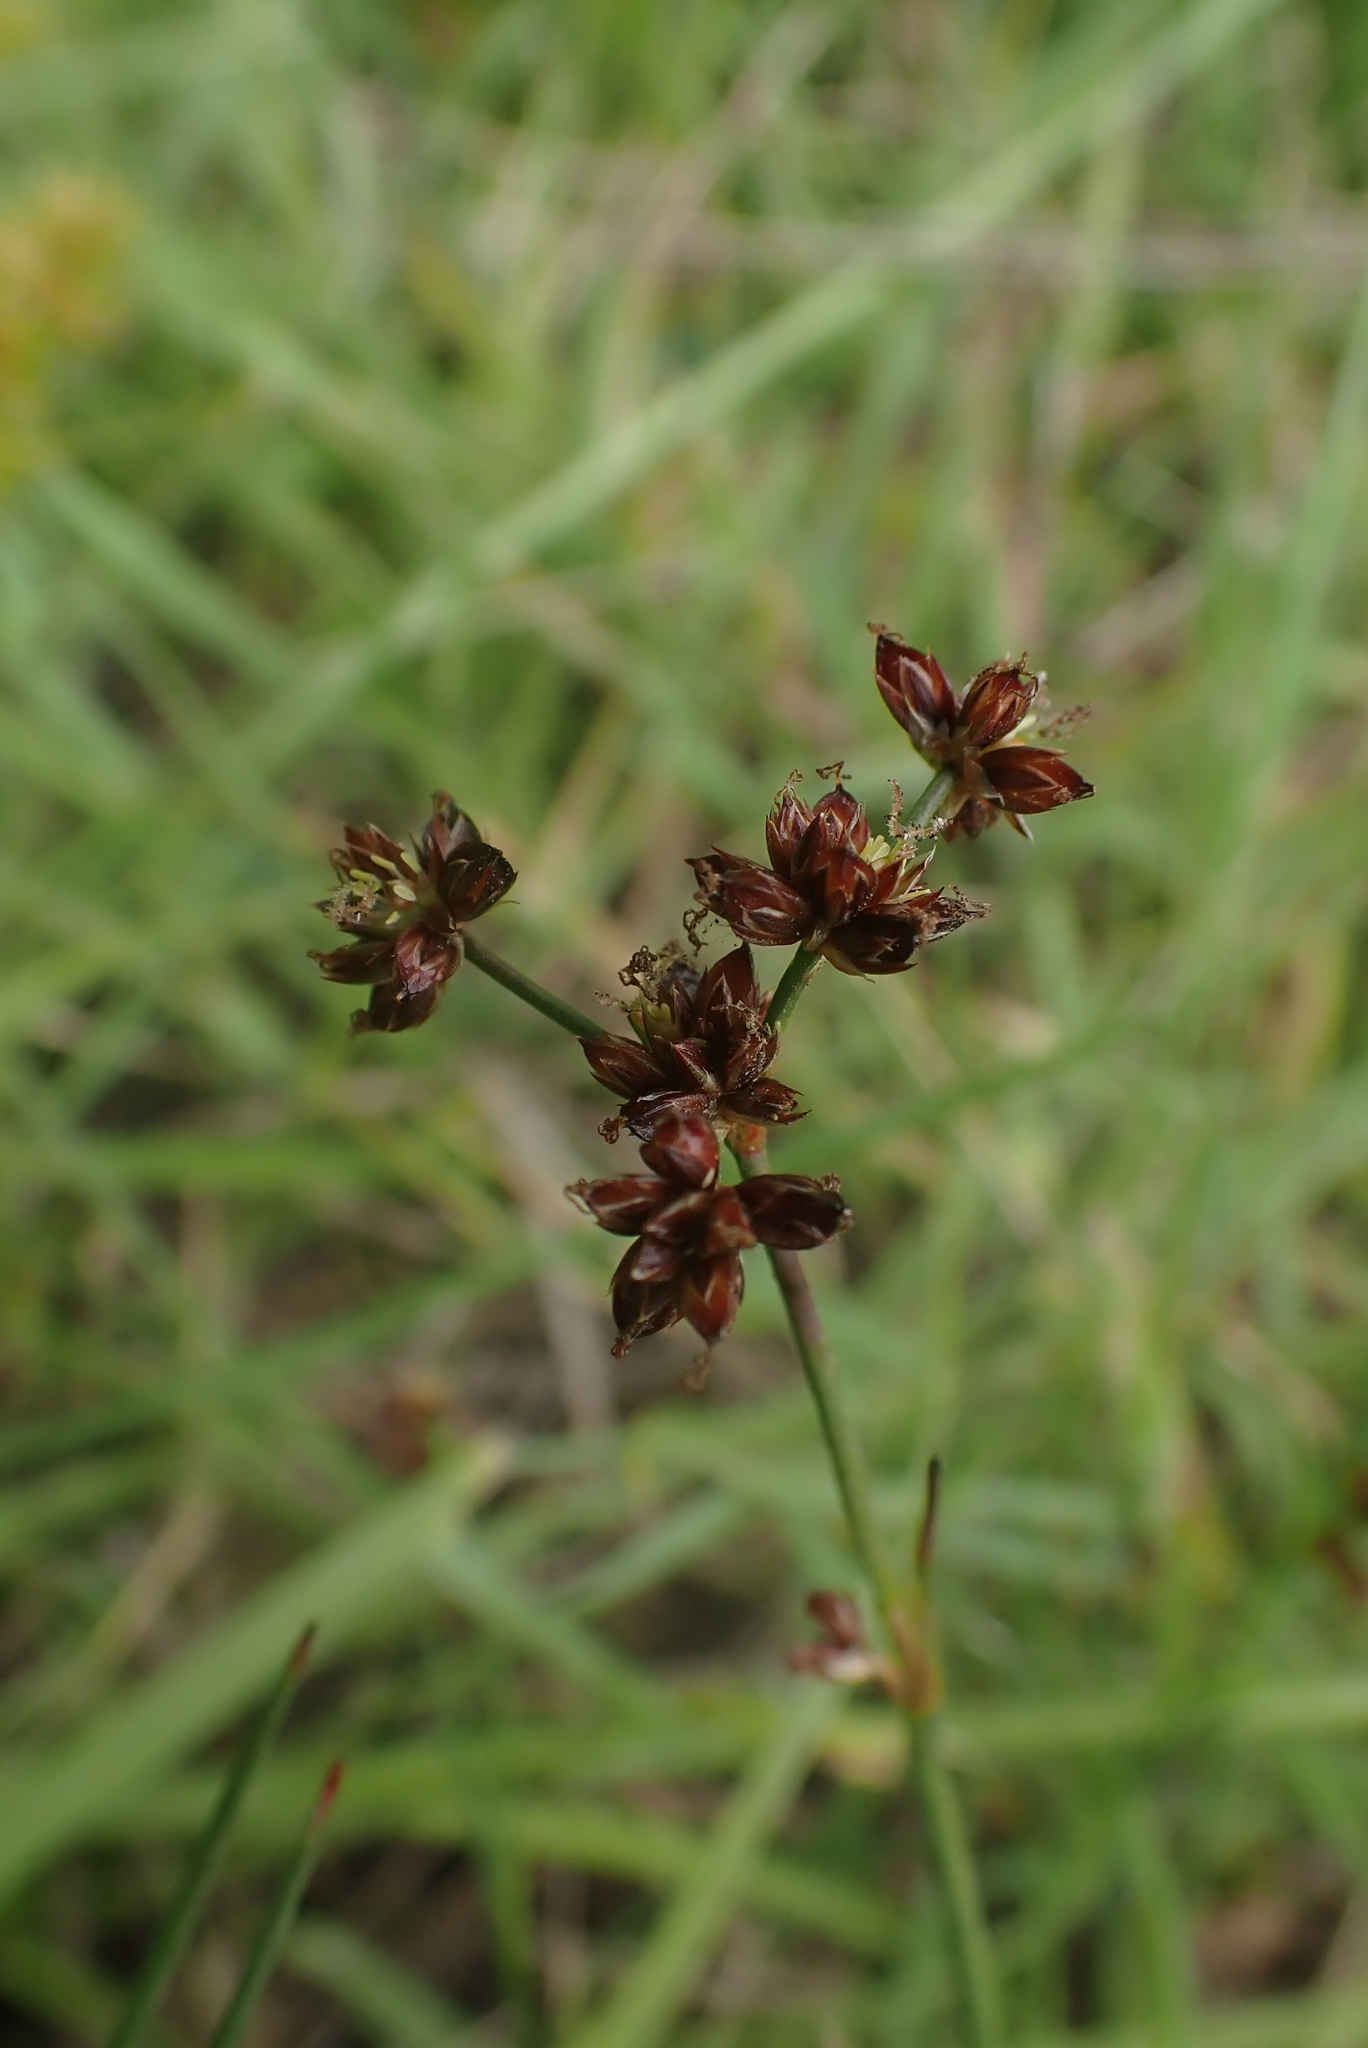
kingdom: Plantae
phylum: Tracheophyta
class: Liliopsida
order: Poales
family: Juncaceae
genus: Juncus
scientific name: Juncus articulatus
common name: Jointed rush
